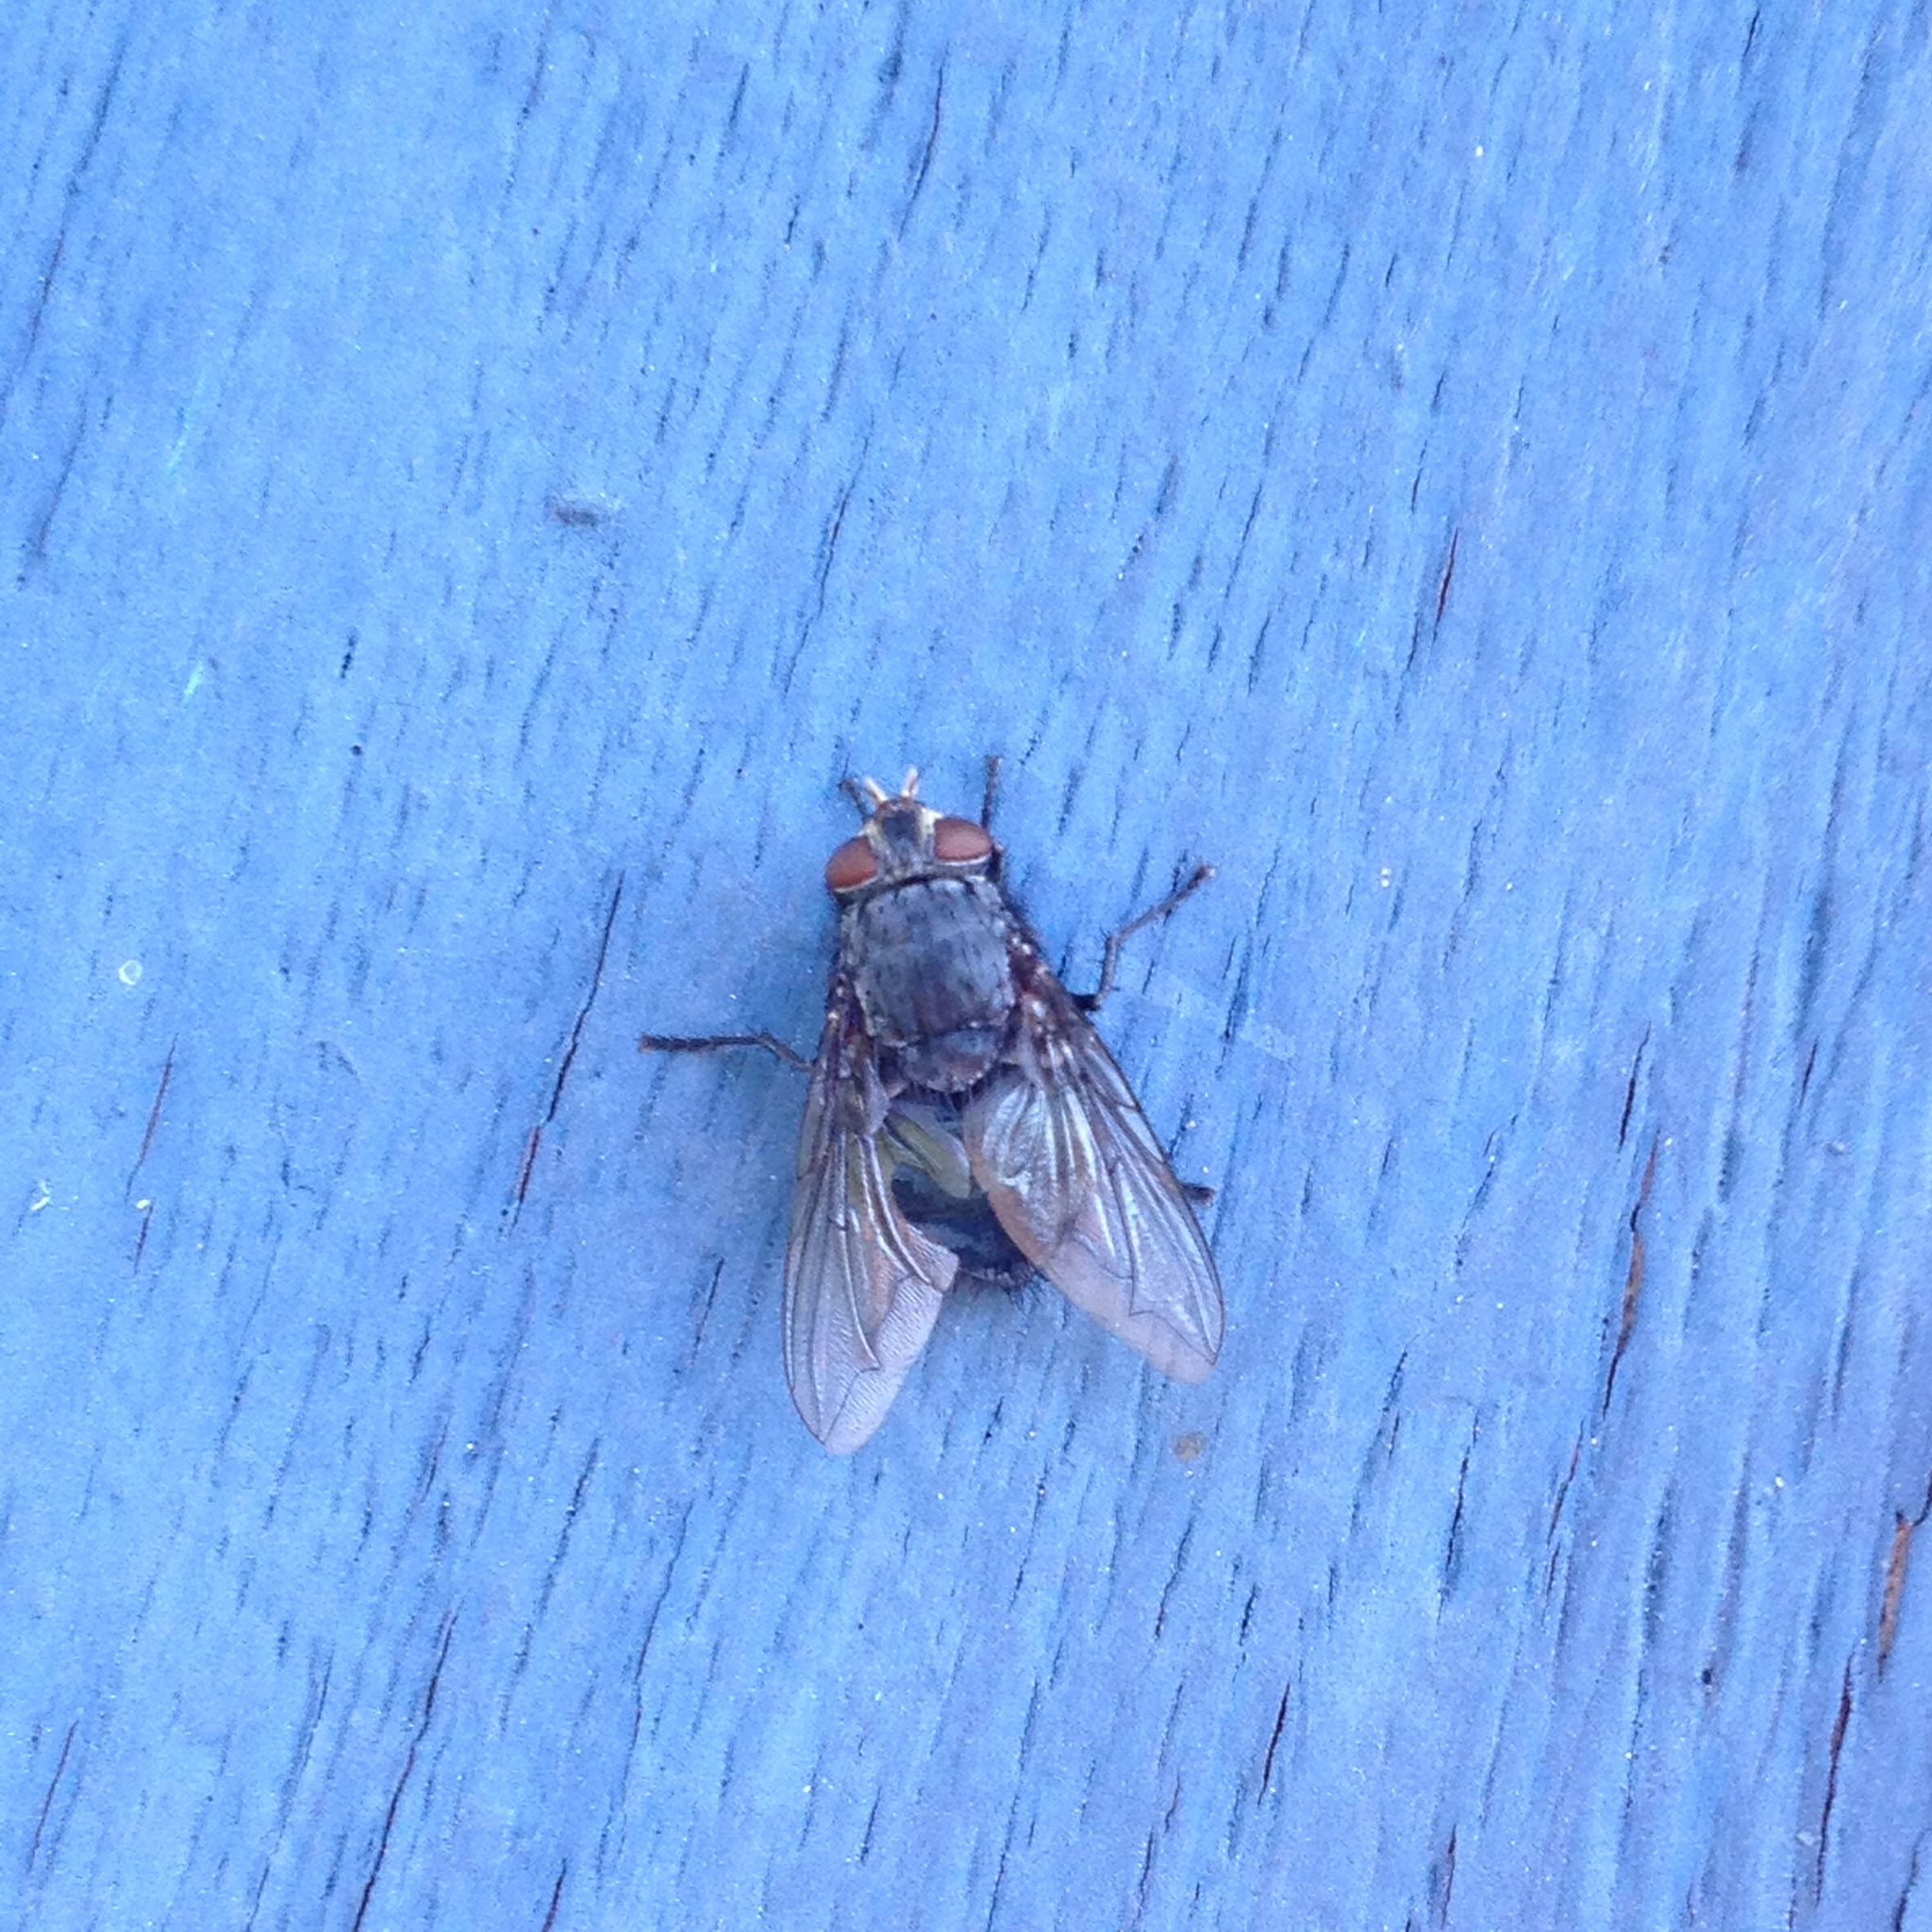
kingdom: Animalia
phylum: Arthropoda
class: Insecta
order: Diptera
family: Calliphoridae
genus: Calliphora
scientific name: Calliphora vicina
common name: Common blow flie
